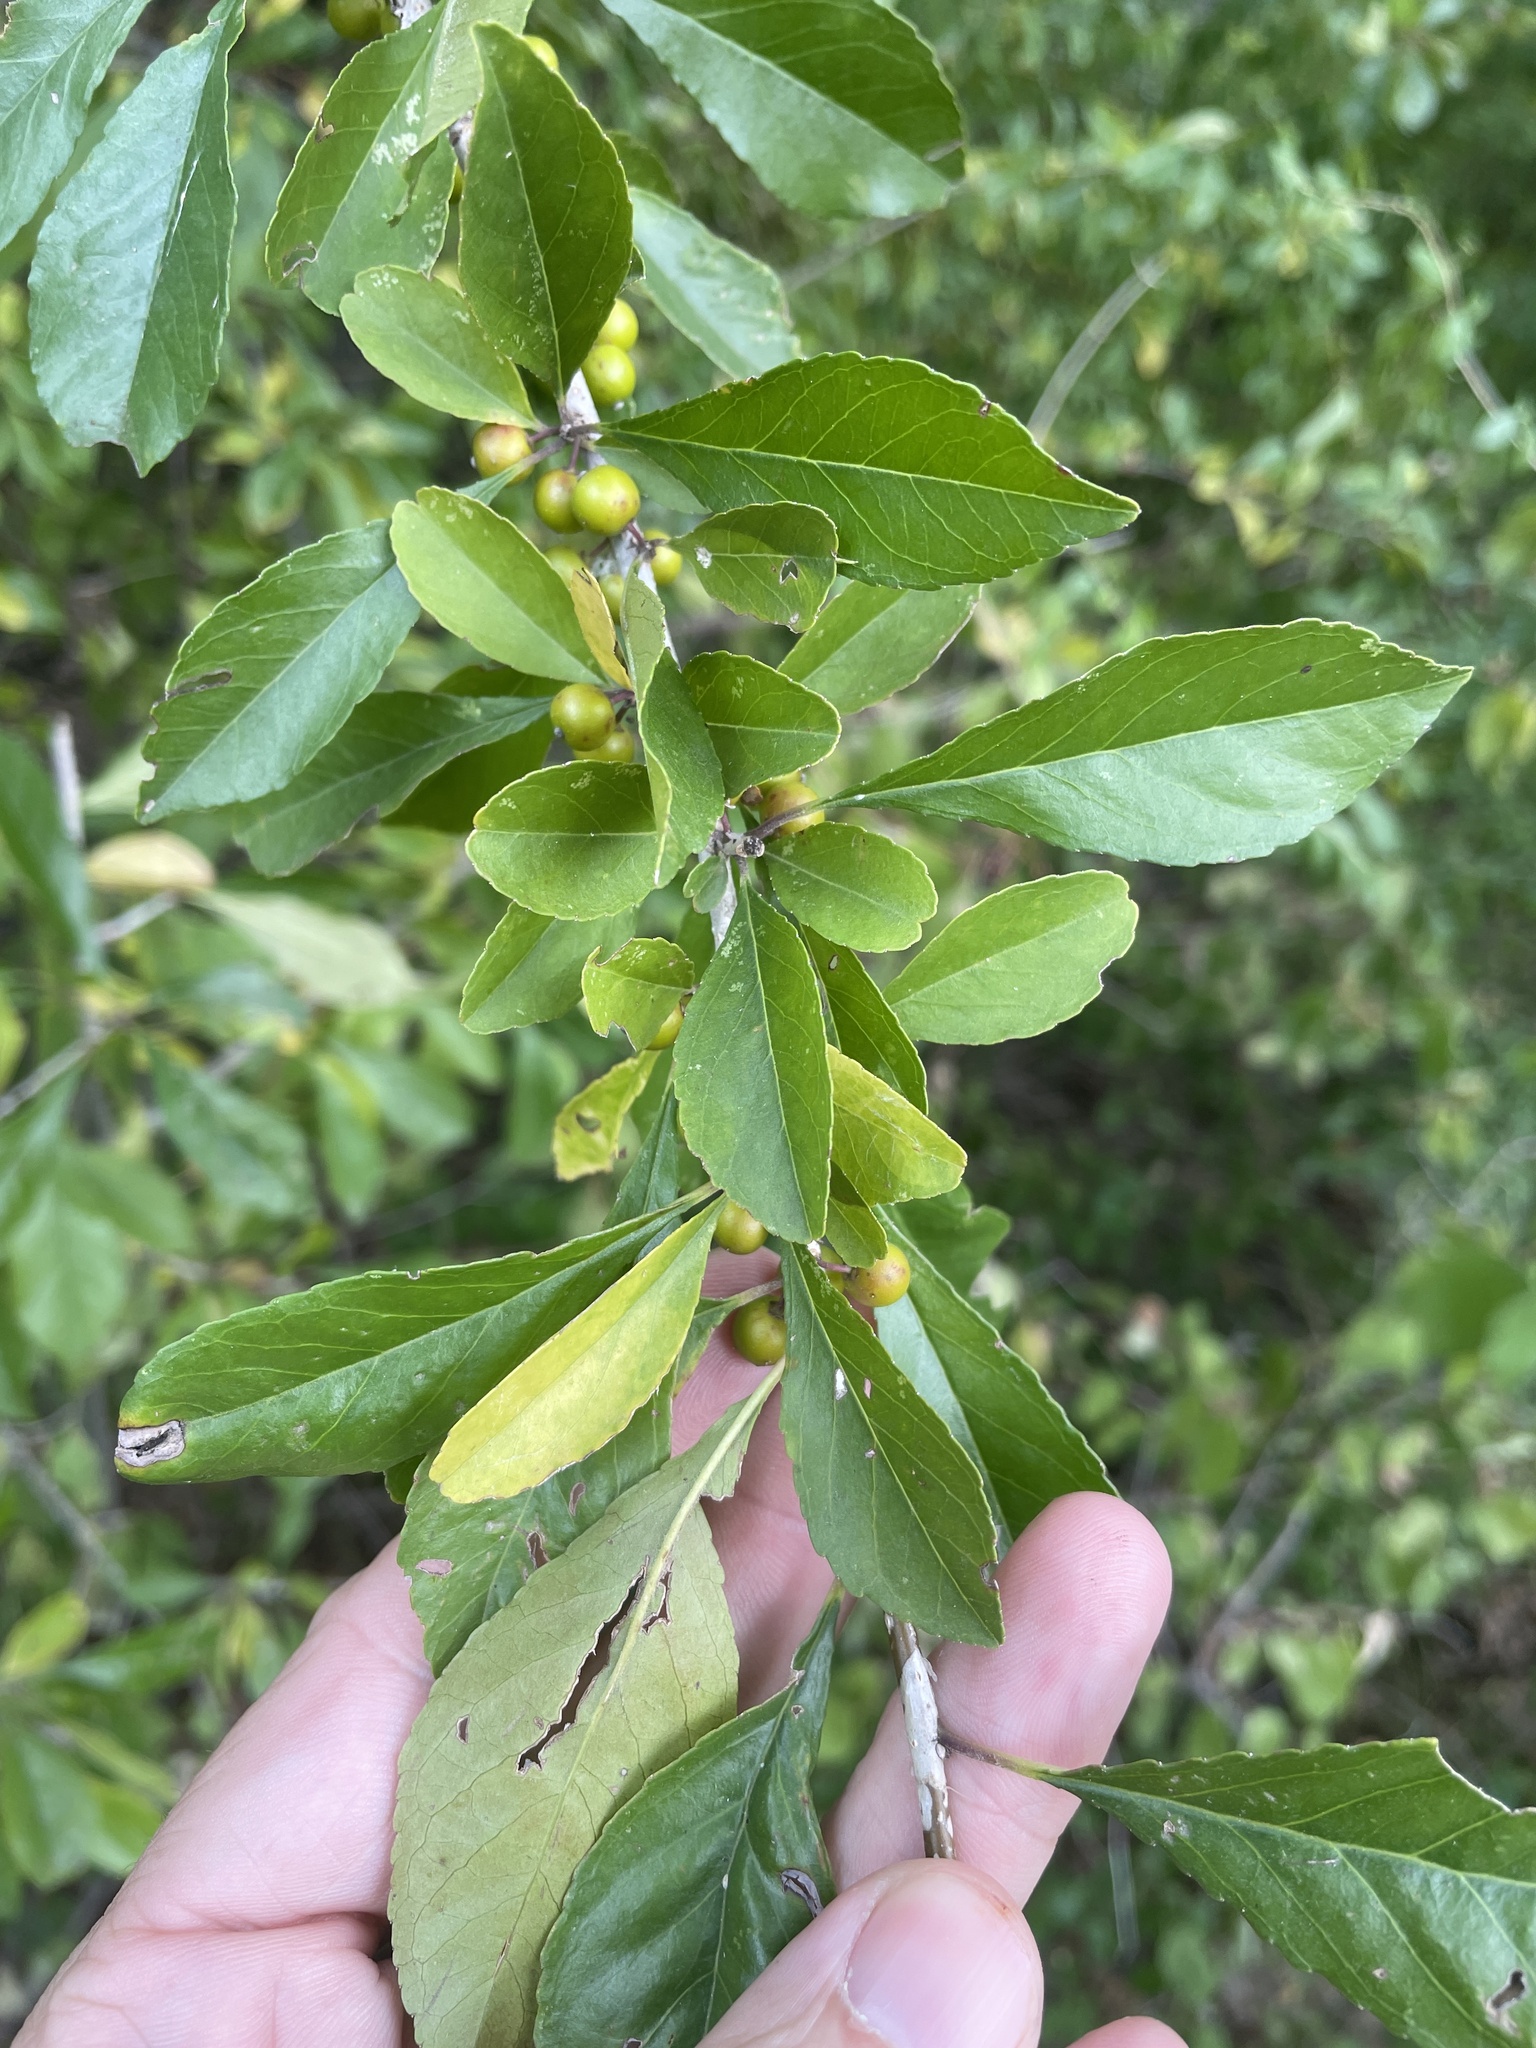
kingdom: Plantae
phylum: Tracheophyta
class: Magnoliopsida
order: Aquifoliales
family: Aquifoliaceae
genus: Ilex
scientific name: Ilex decidua
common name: Possum-haw
